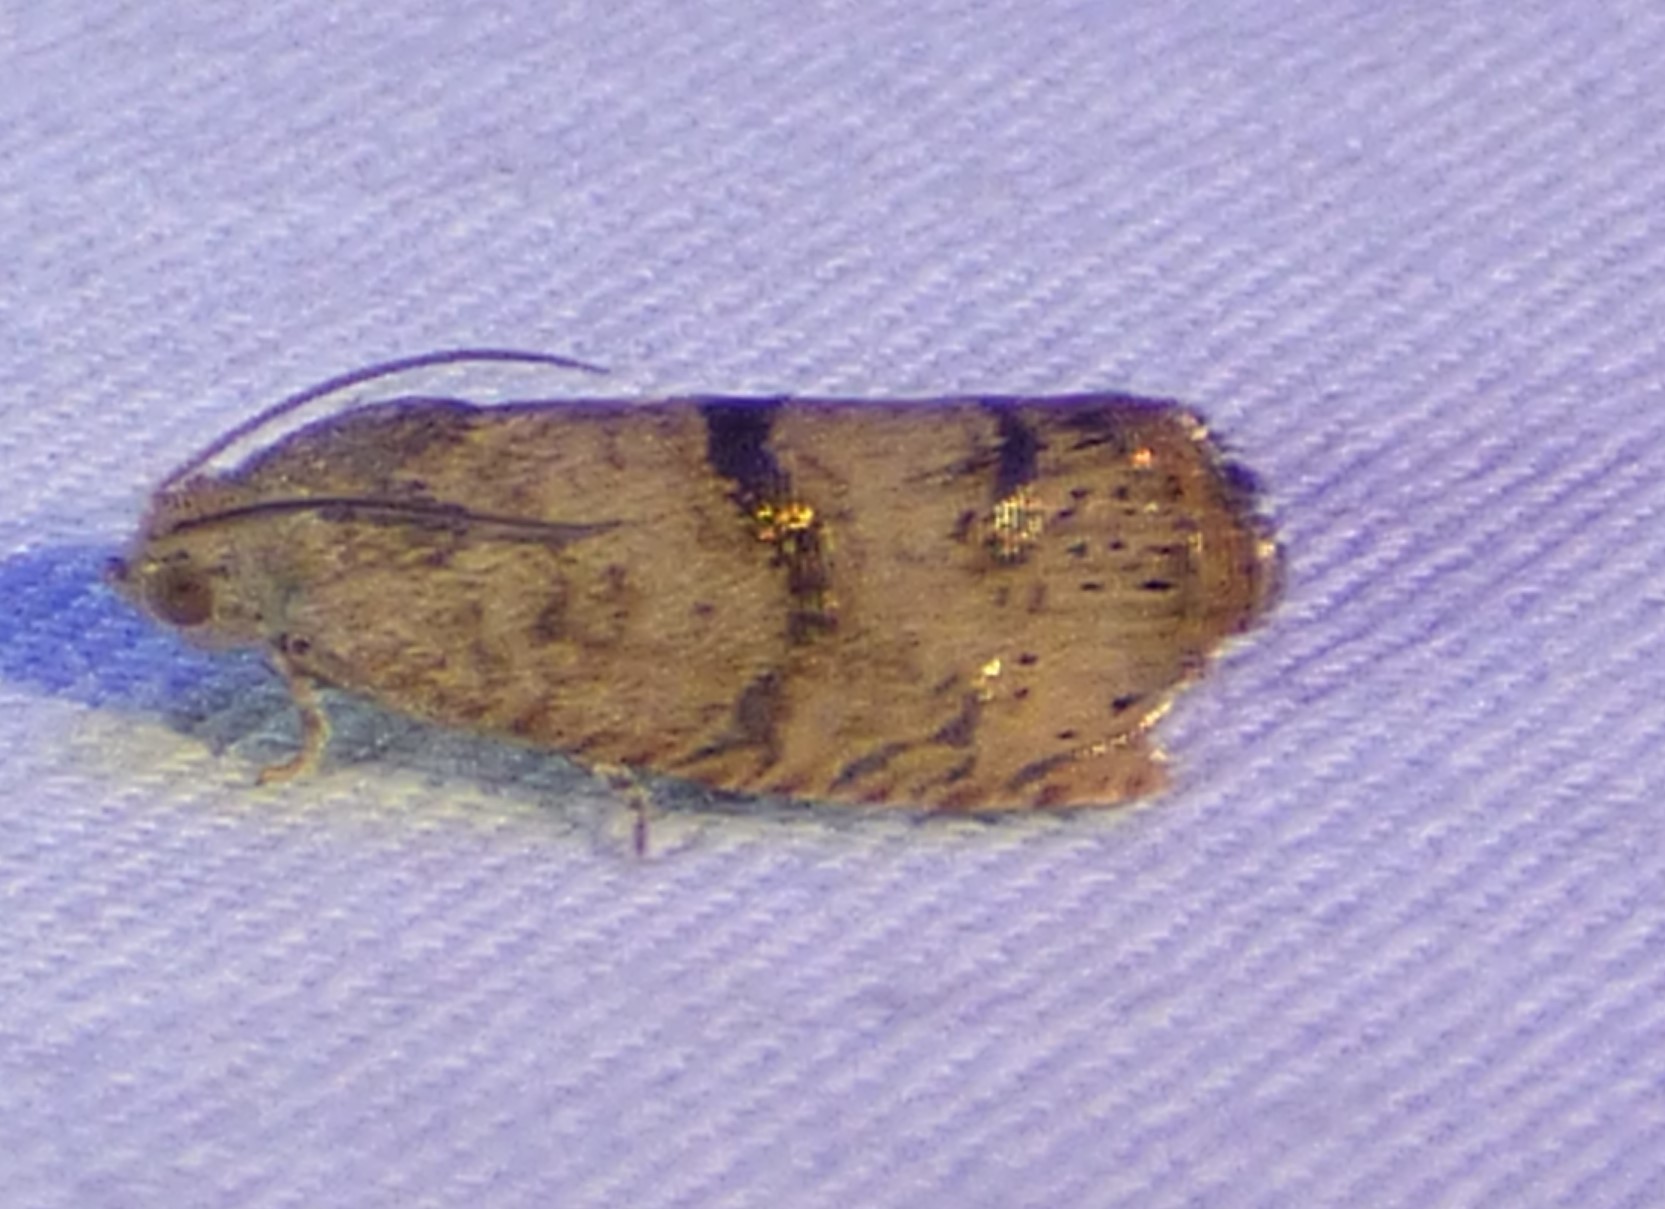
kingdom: Animalia
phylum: Arthropoda
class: Insecta
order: Lepidoptera
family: Tortricidae
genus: Cydia
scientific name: Cydia latiferreana
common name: Filbertworm moth
